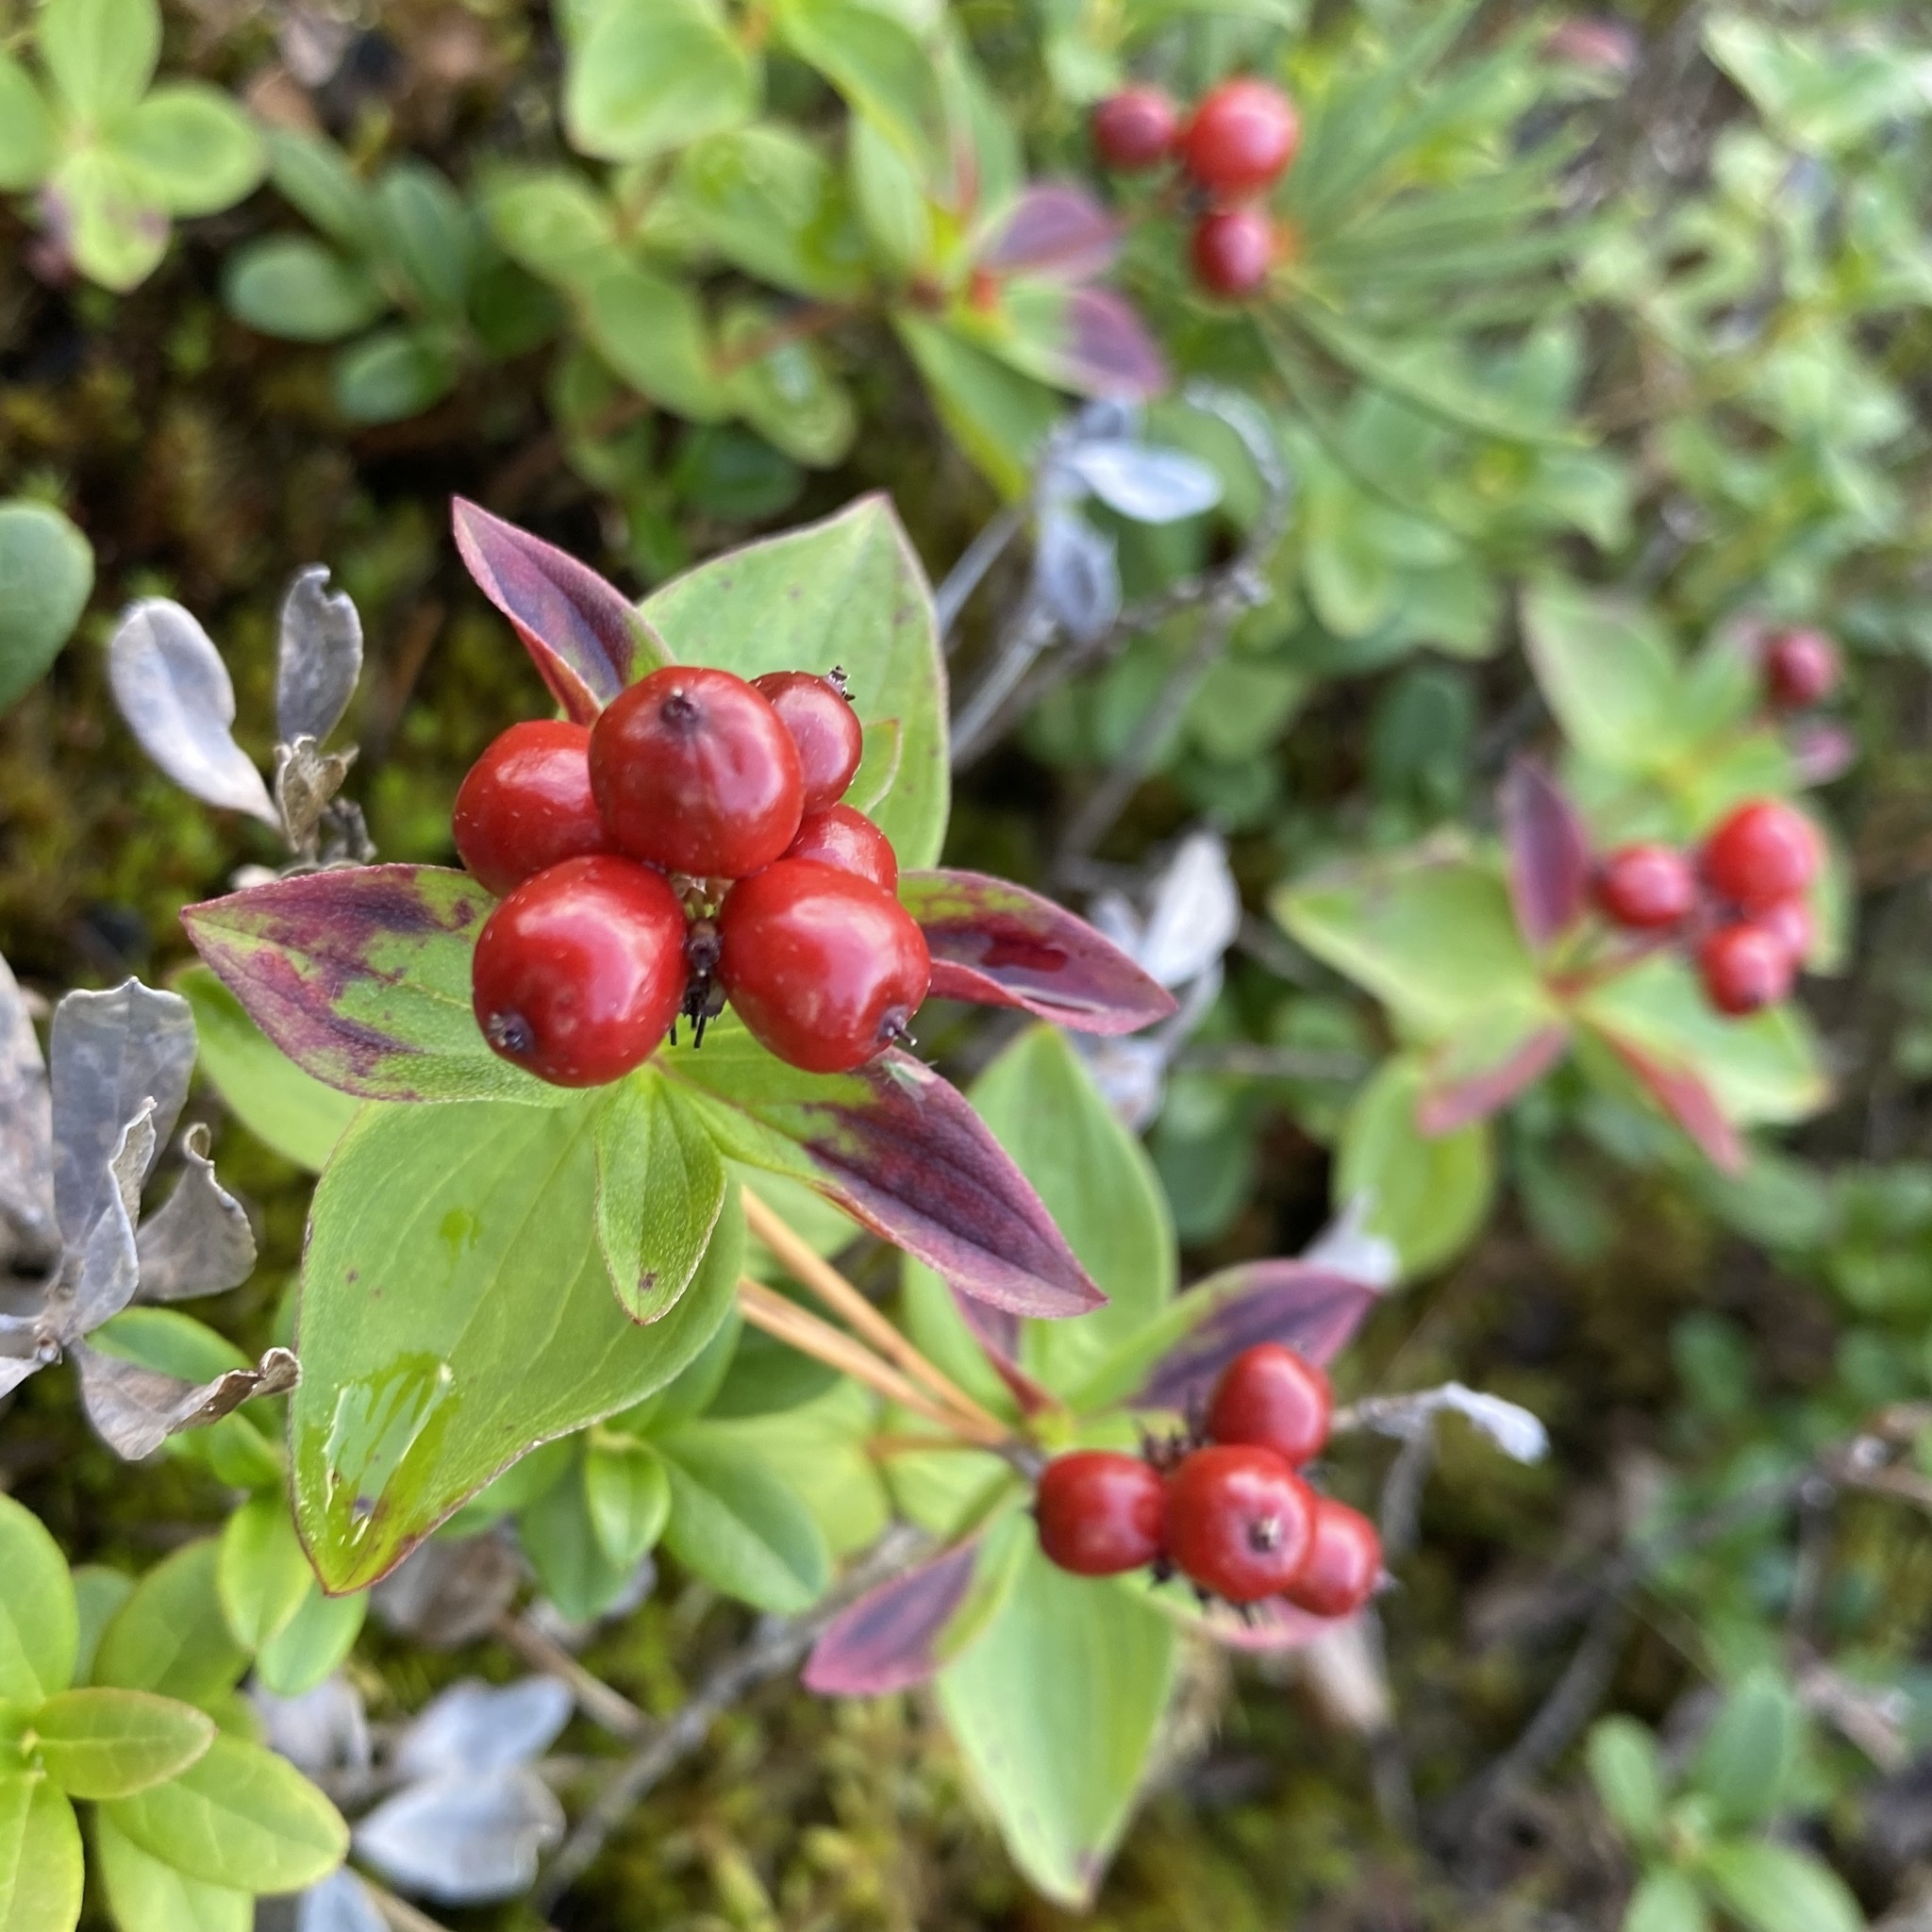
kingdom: Plantae
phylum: Tracheophyta
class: Magnoliopsida
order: Cornales
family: Cornaceae
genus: Cornus
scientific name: Cornus suecica
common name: Dwarf cornel
